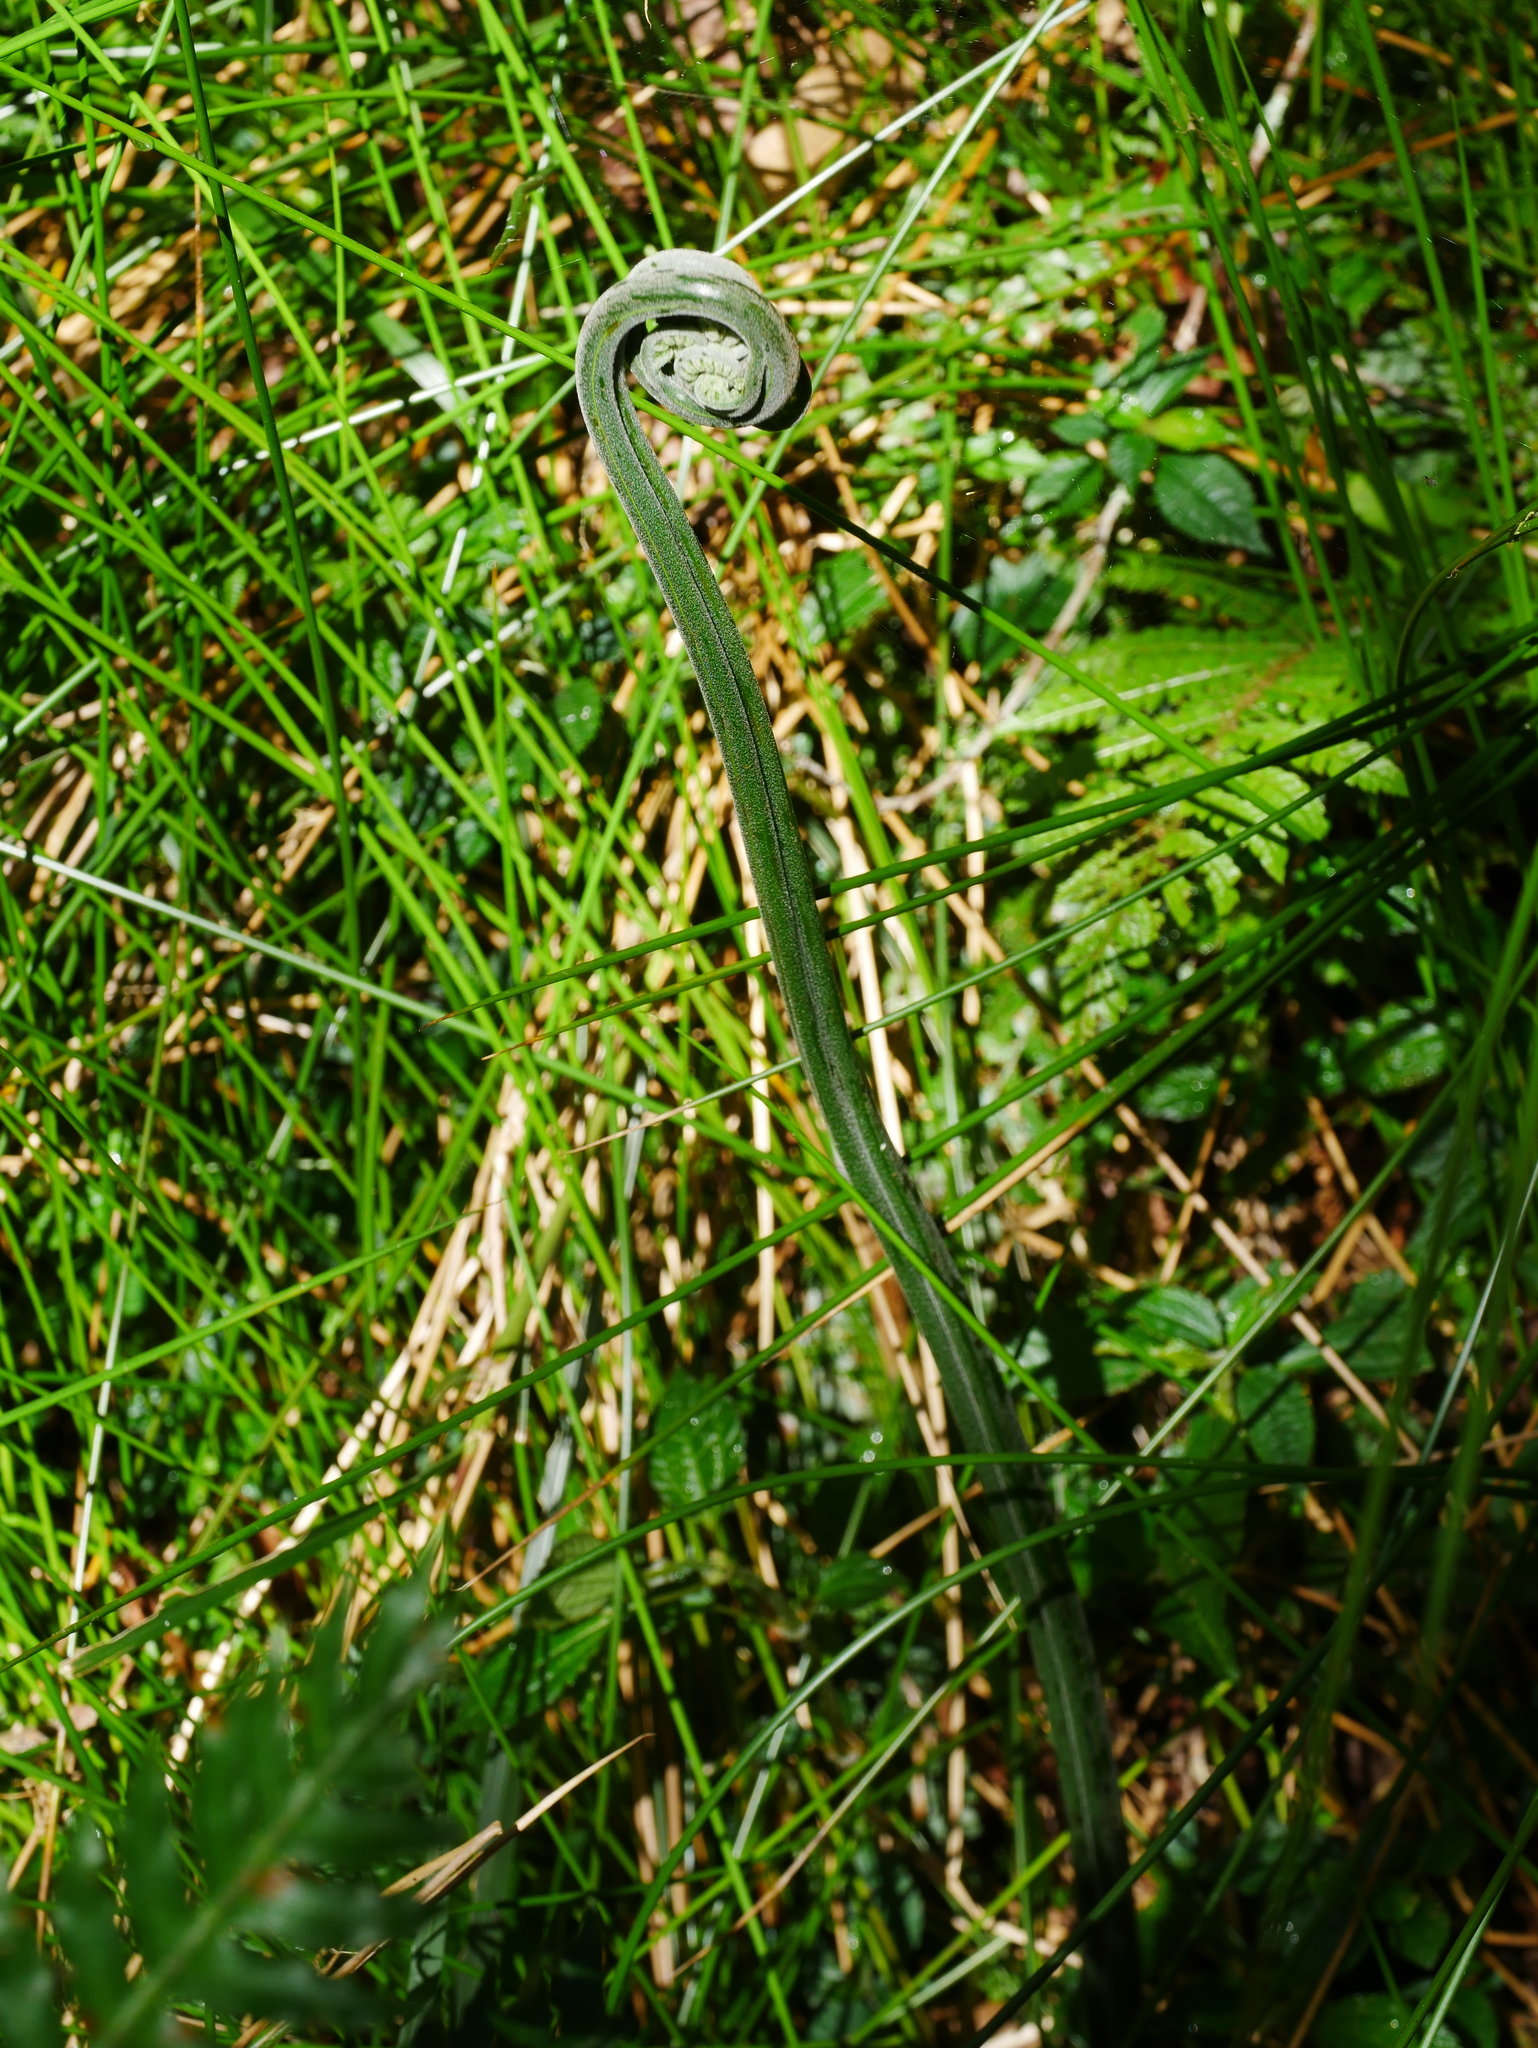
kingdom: Plantae
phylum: Tracheophyta
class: Polypodiopsida
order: Polypodiales
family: Pteridaceae
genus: Pteris
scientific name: Pteris terminalis
